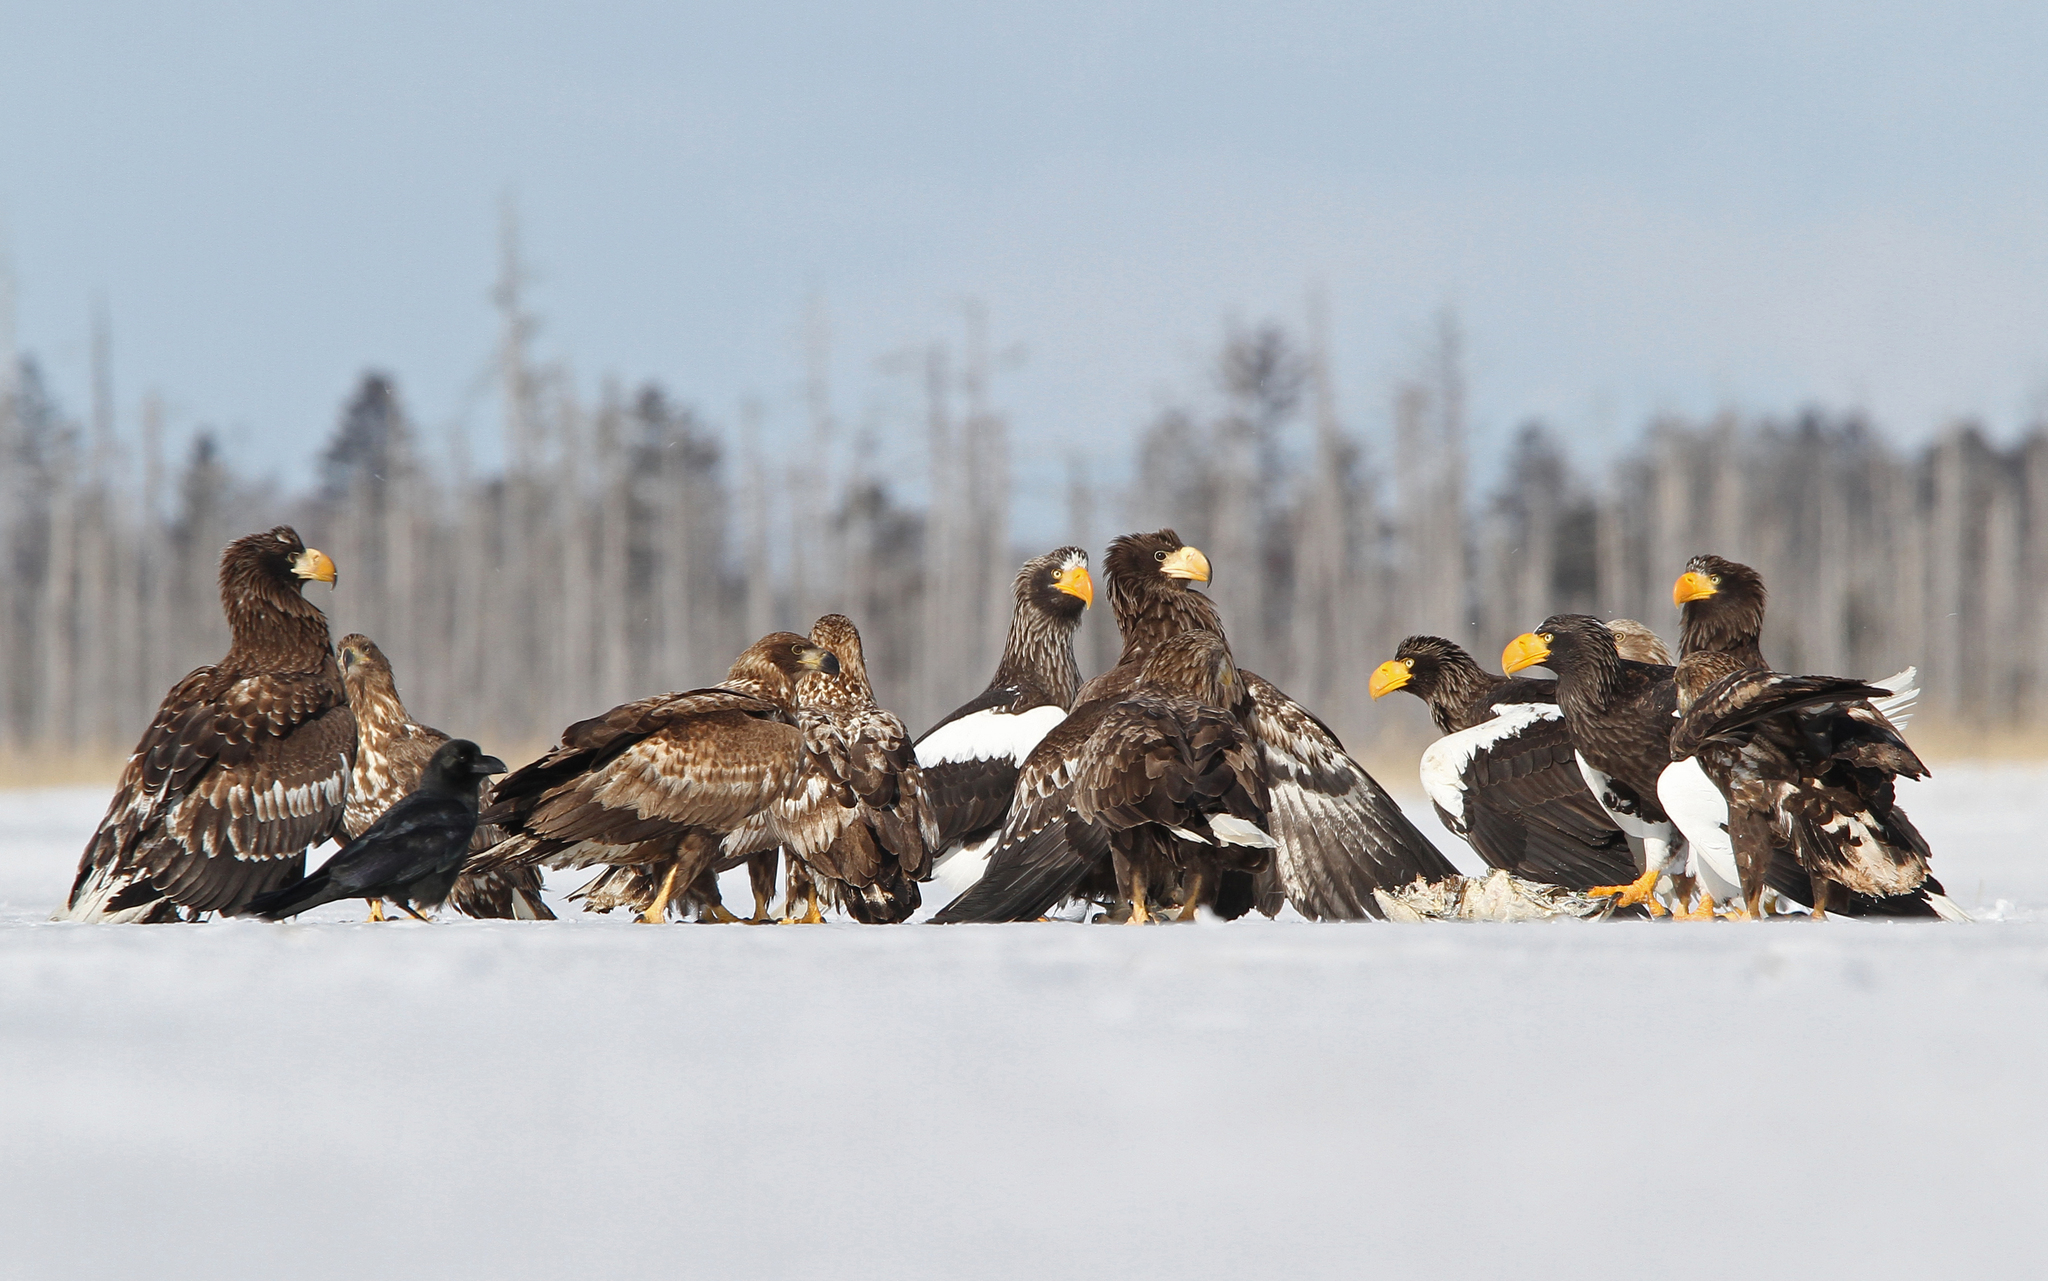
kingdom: Animalia
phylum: Chordata
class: Aves
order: Accipitriformes
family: Accipitridae
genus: Haliaeetus
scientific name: Haliaeetus pelagicus
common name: Steller's sea eagle
